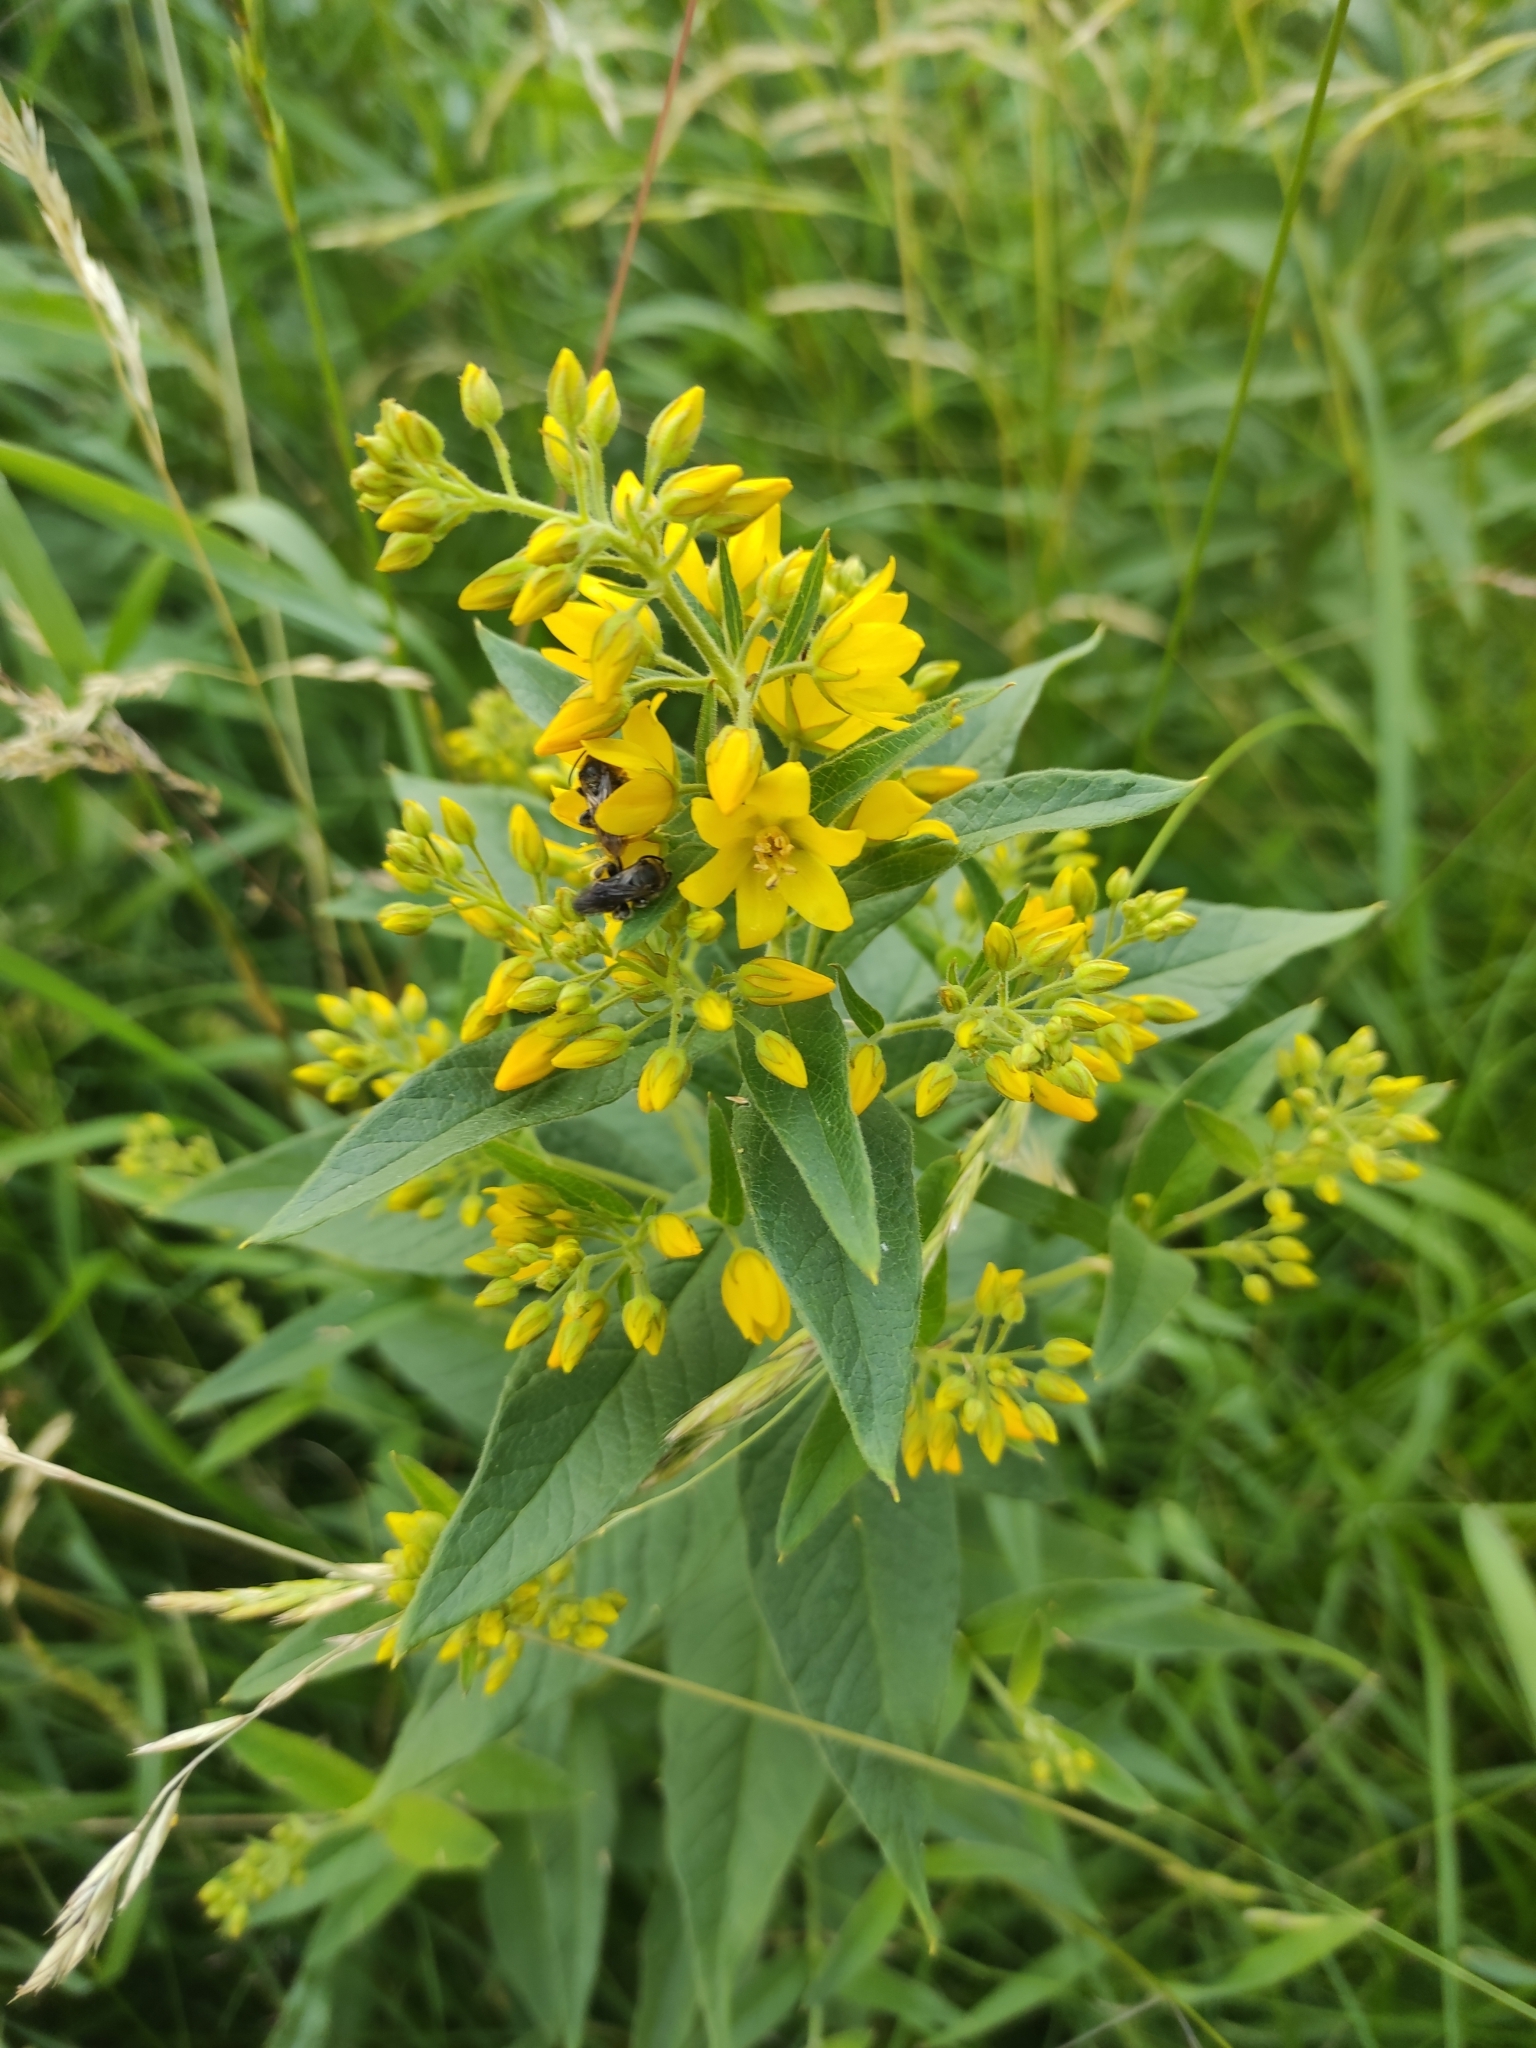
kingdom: Plantae
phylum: Tracheophyta
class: Magnoliopsida
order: Ericales
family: Primulaceae
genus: Lysimachia
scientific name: Lysimachia vulgaris
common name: Yellow loosestrife
